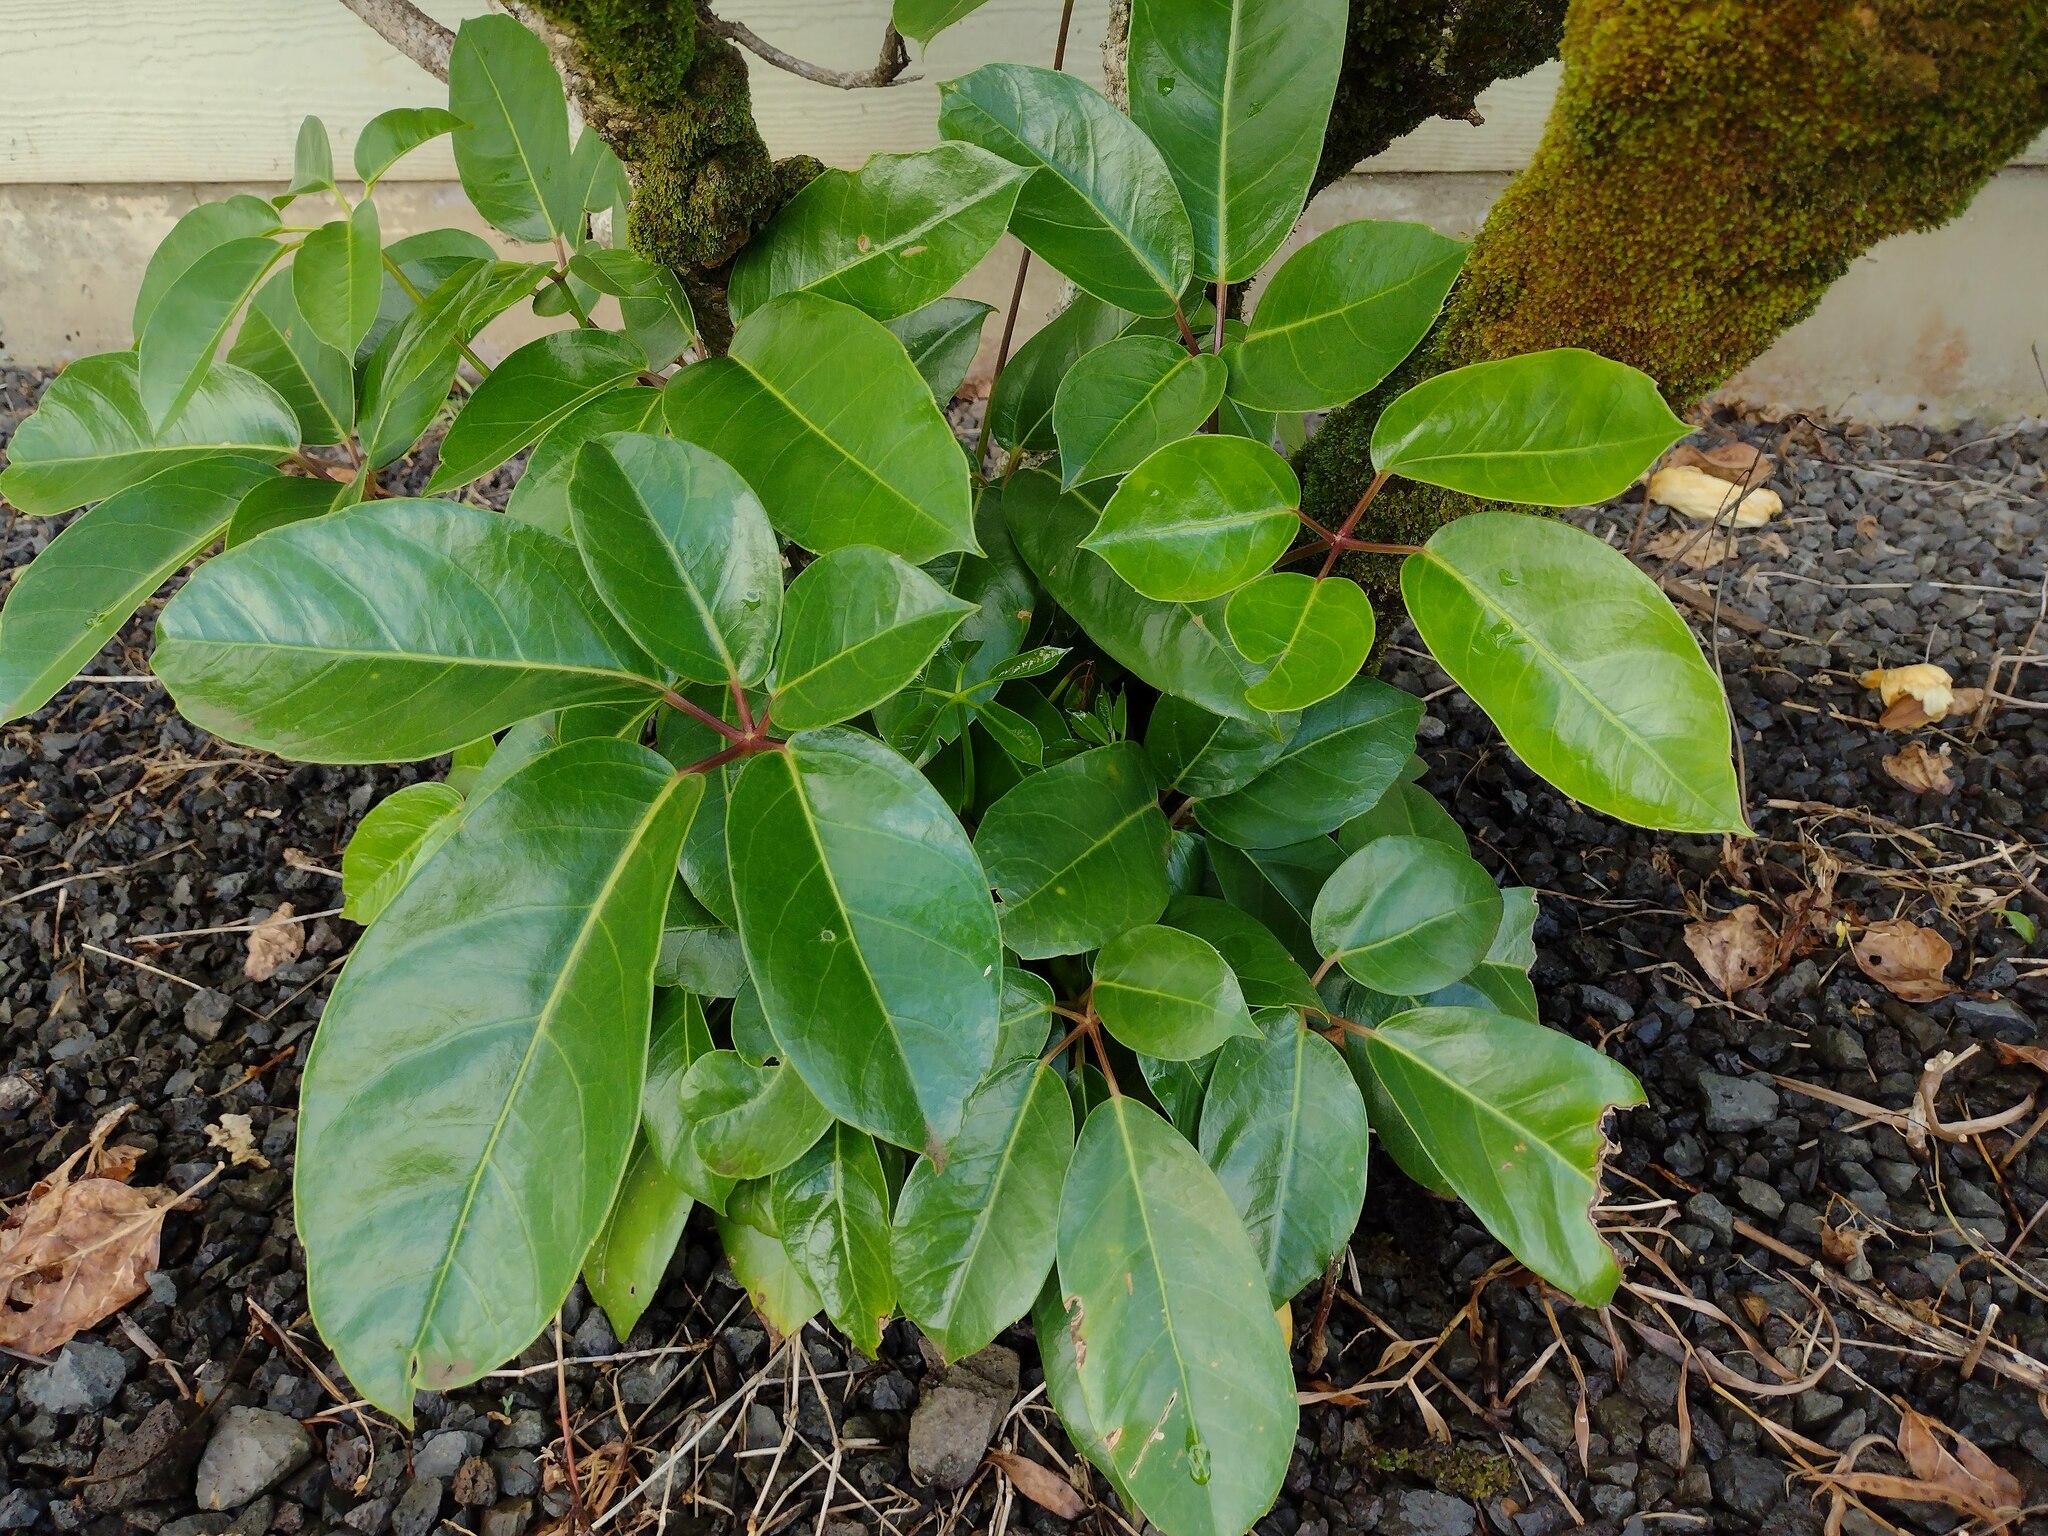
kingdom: Plantae
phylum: Tracheophyta
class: Magnoliopsida
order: Apiales
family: Araliaceae
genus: Heptapleurum
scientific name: Heptapleurum actinophyllum
